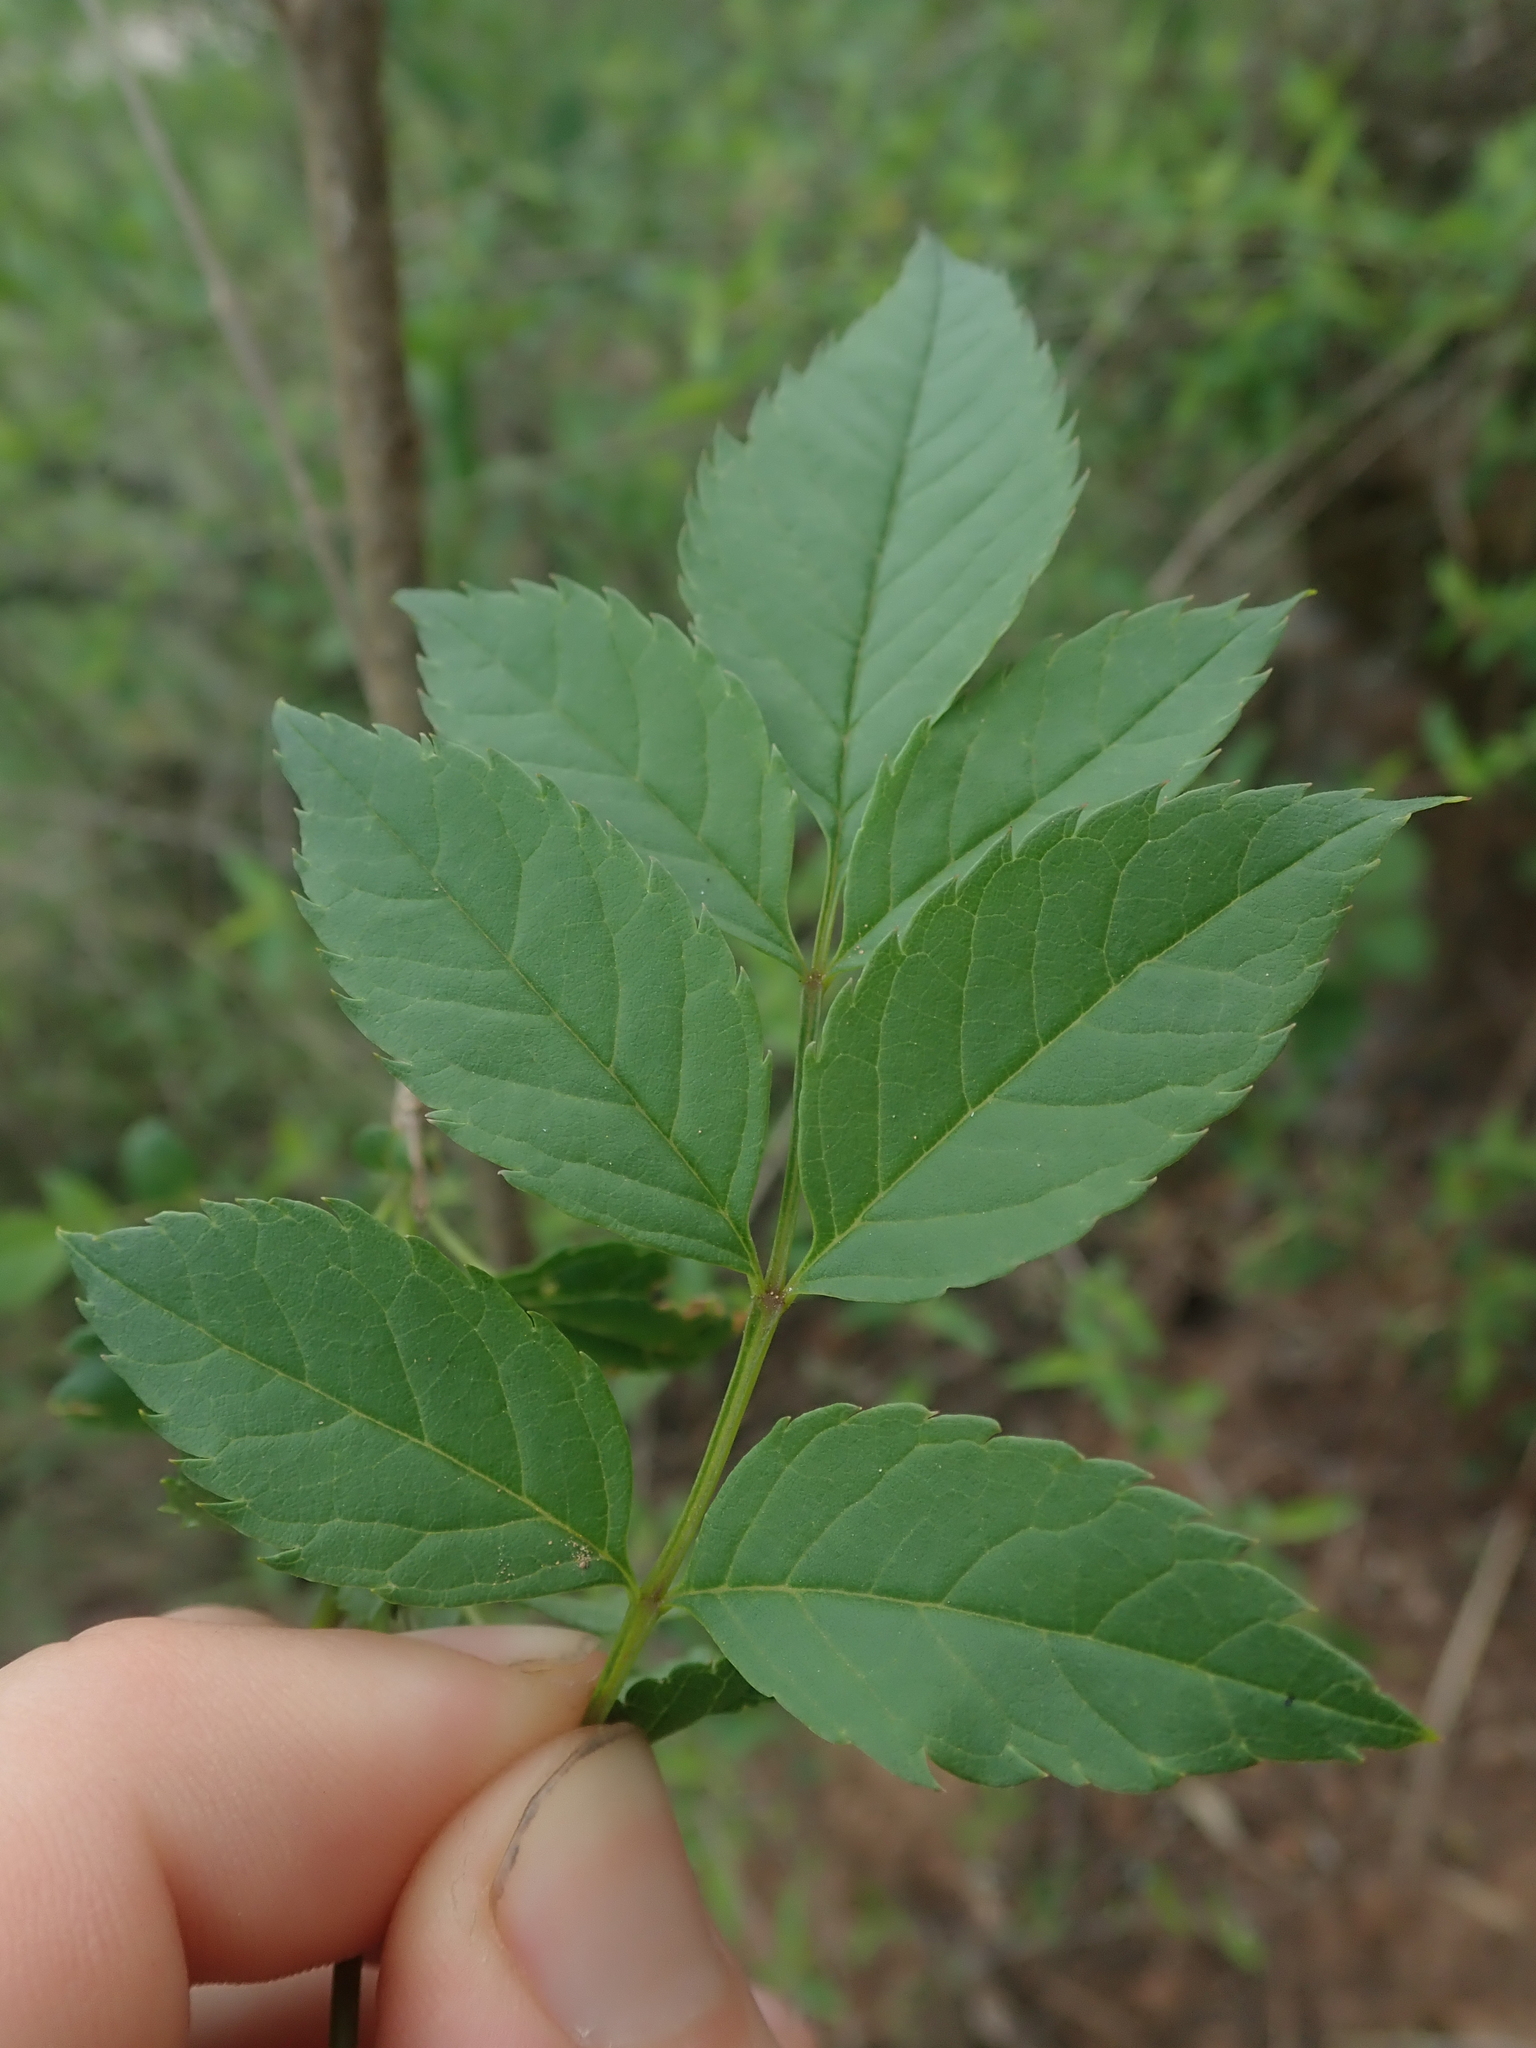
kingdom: Plantae
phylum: Tracheophyta
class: Magnoliopsida
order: Lamiales
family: Bignoniaceae
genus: Tecoma
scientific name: Tecoma fulva
